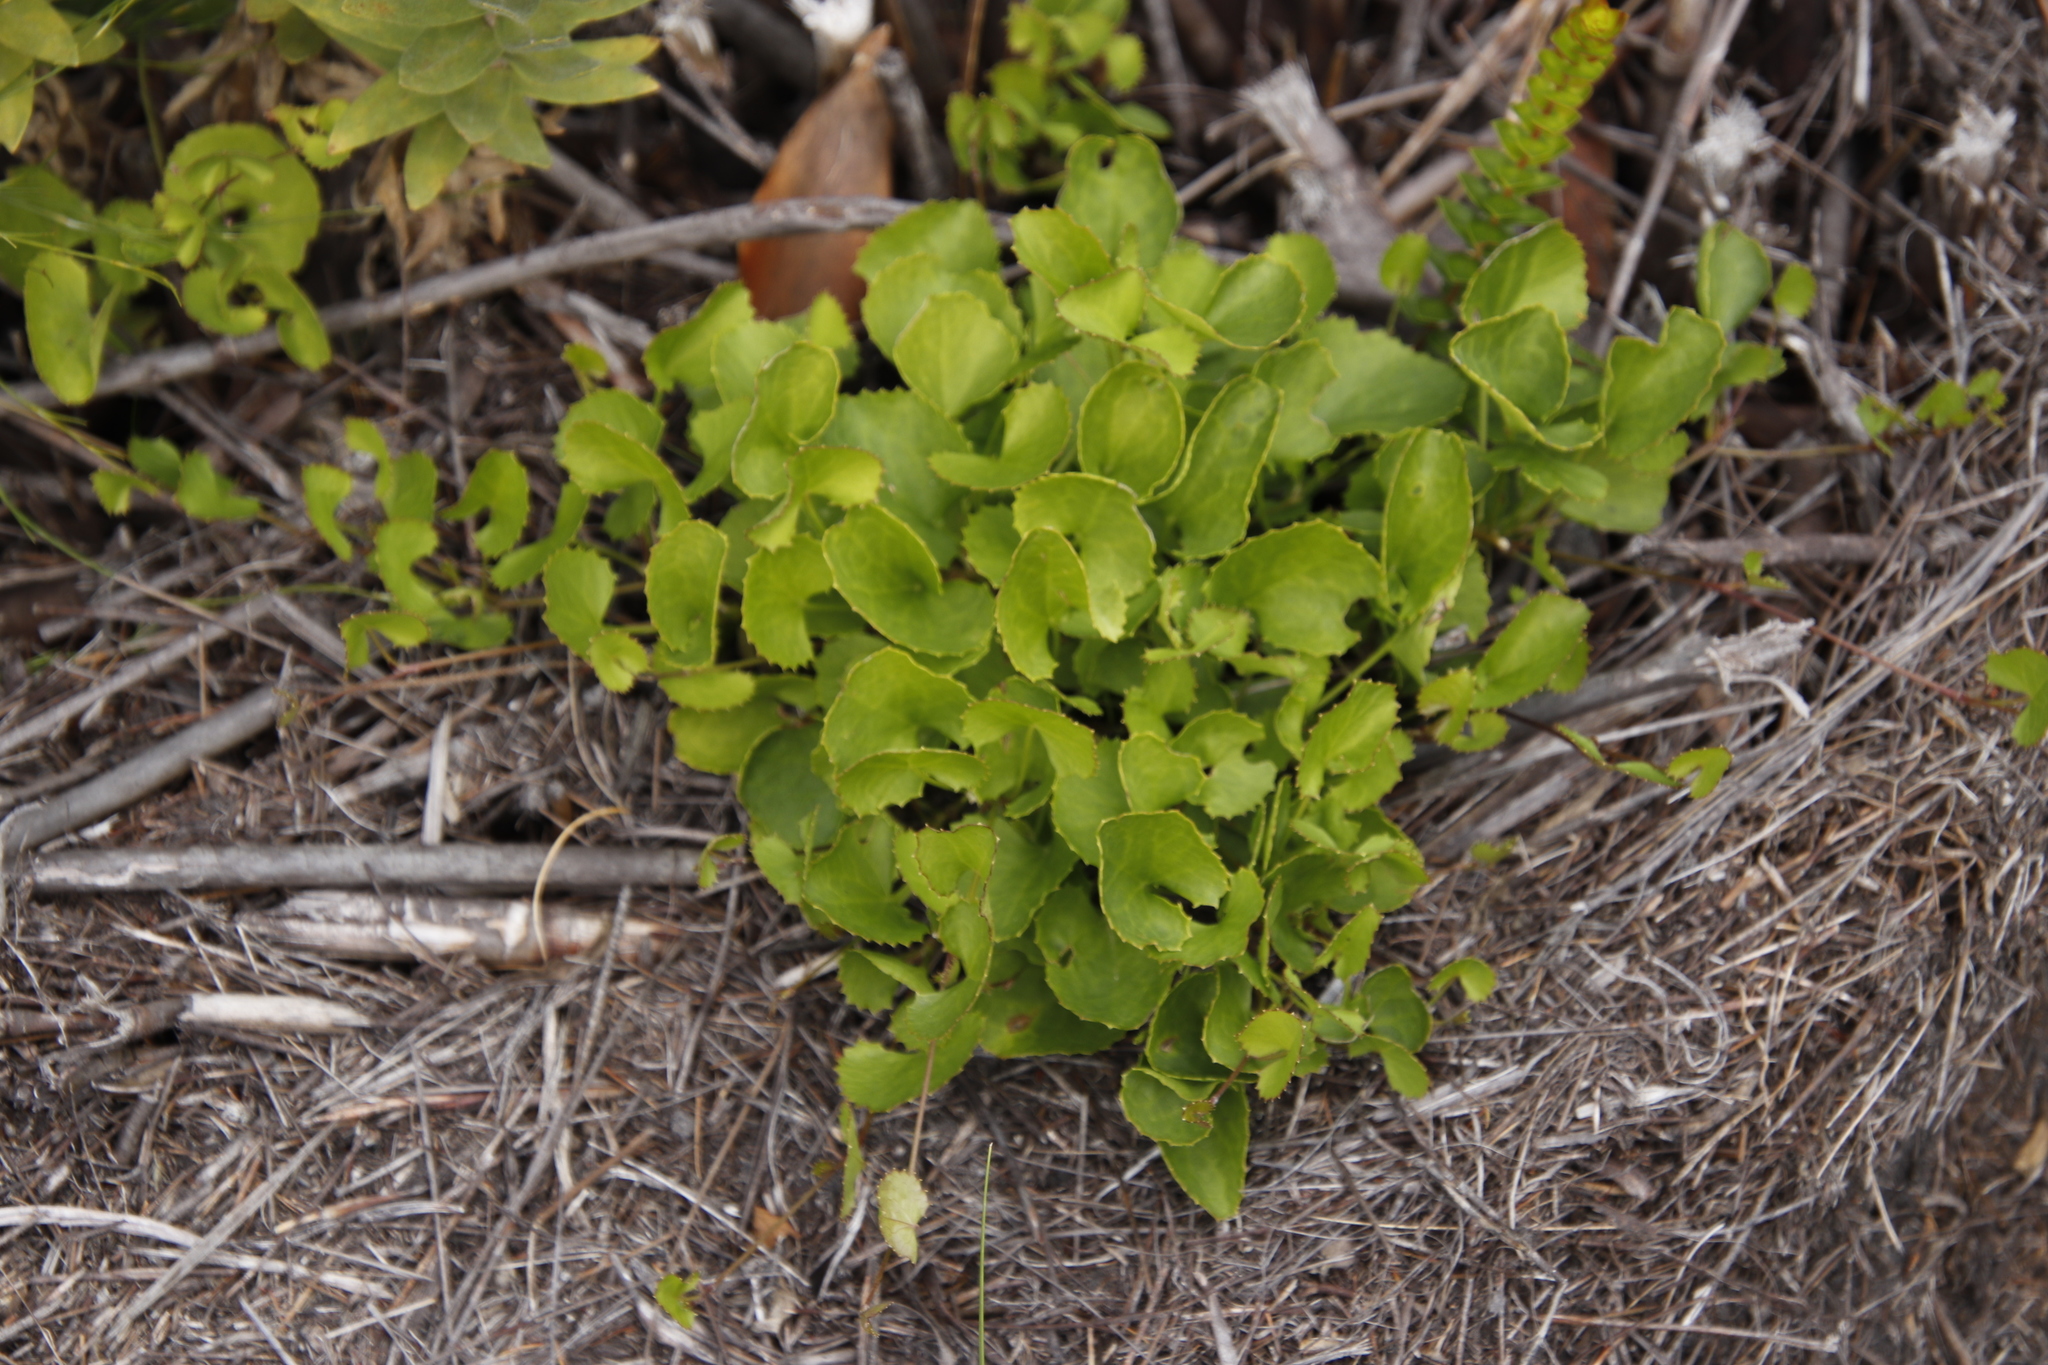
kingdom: Plantae
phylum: Tracheophyta
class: Magnoliopsida
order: Apiales
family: Apiaceae
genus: Centella
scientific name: Centella eriantha
